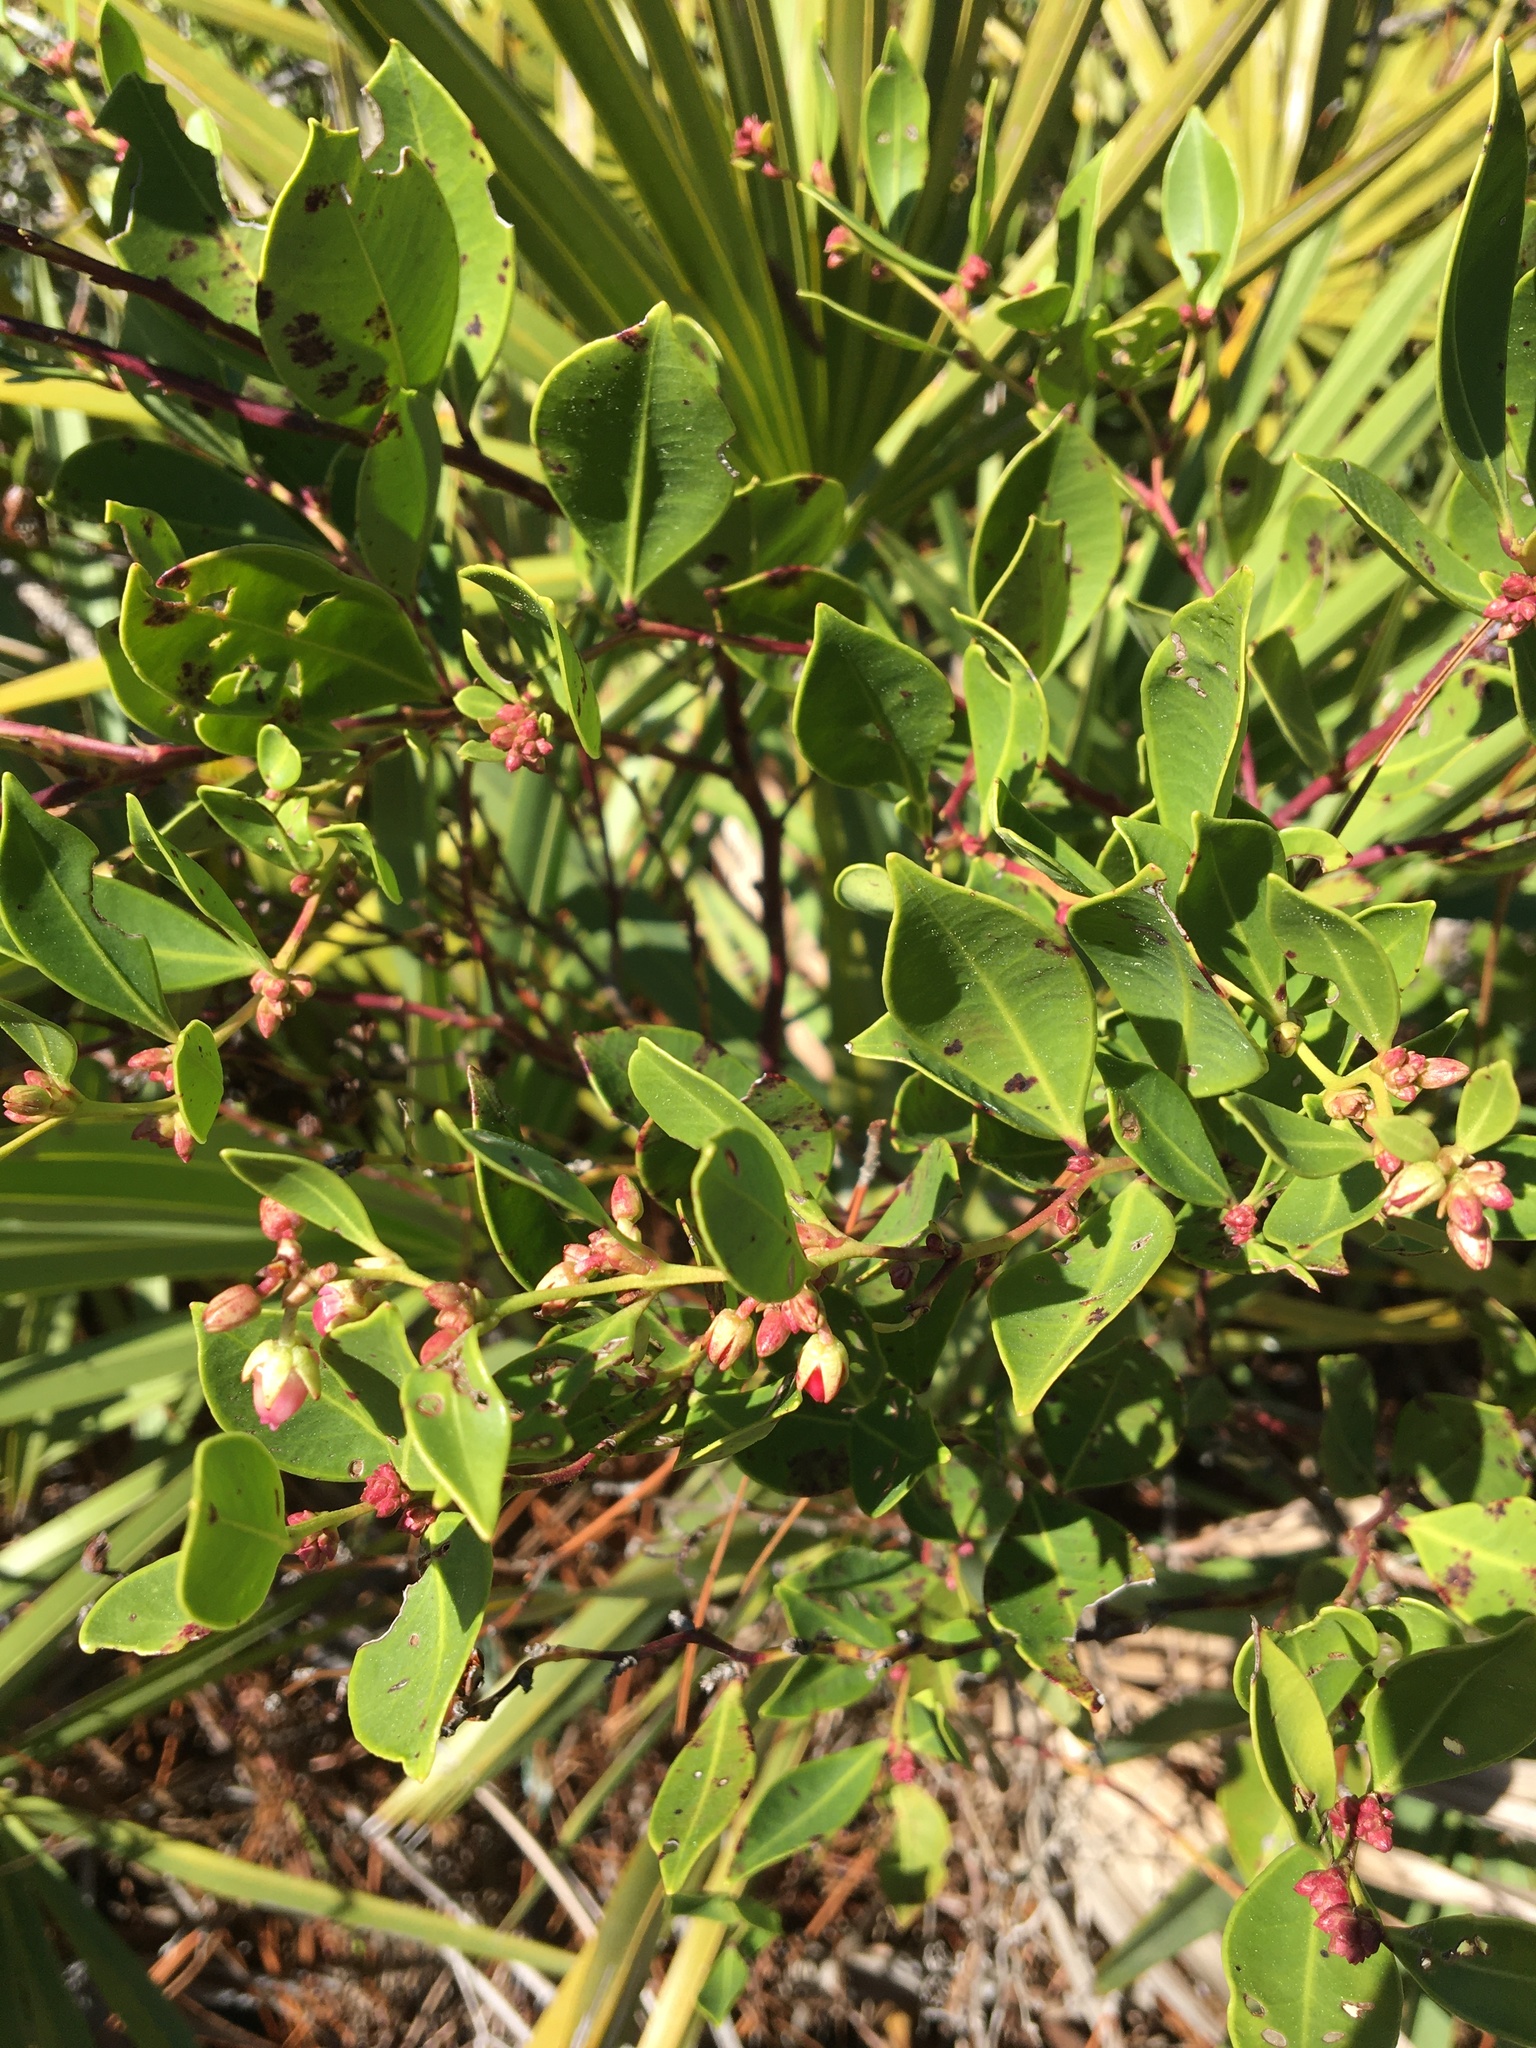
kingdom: Plantae
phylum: Tracheophyta
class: Magnoliopsida
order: Ericales
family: Ericaceae
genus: Lyonia
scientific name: Lyonia lucida
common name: Fetterbush
